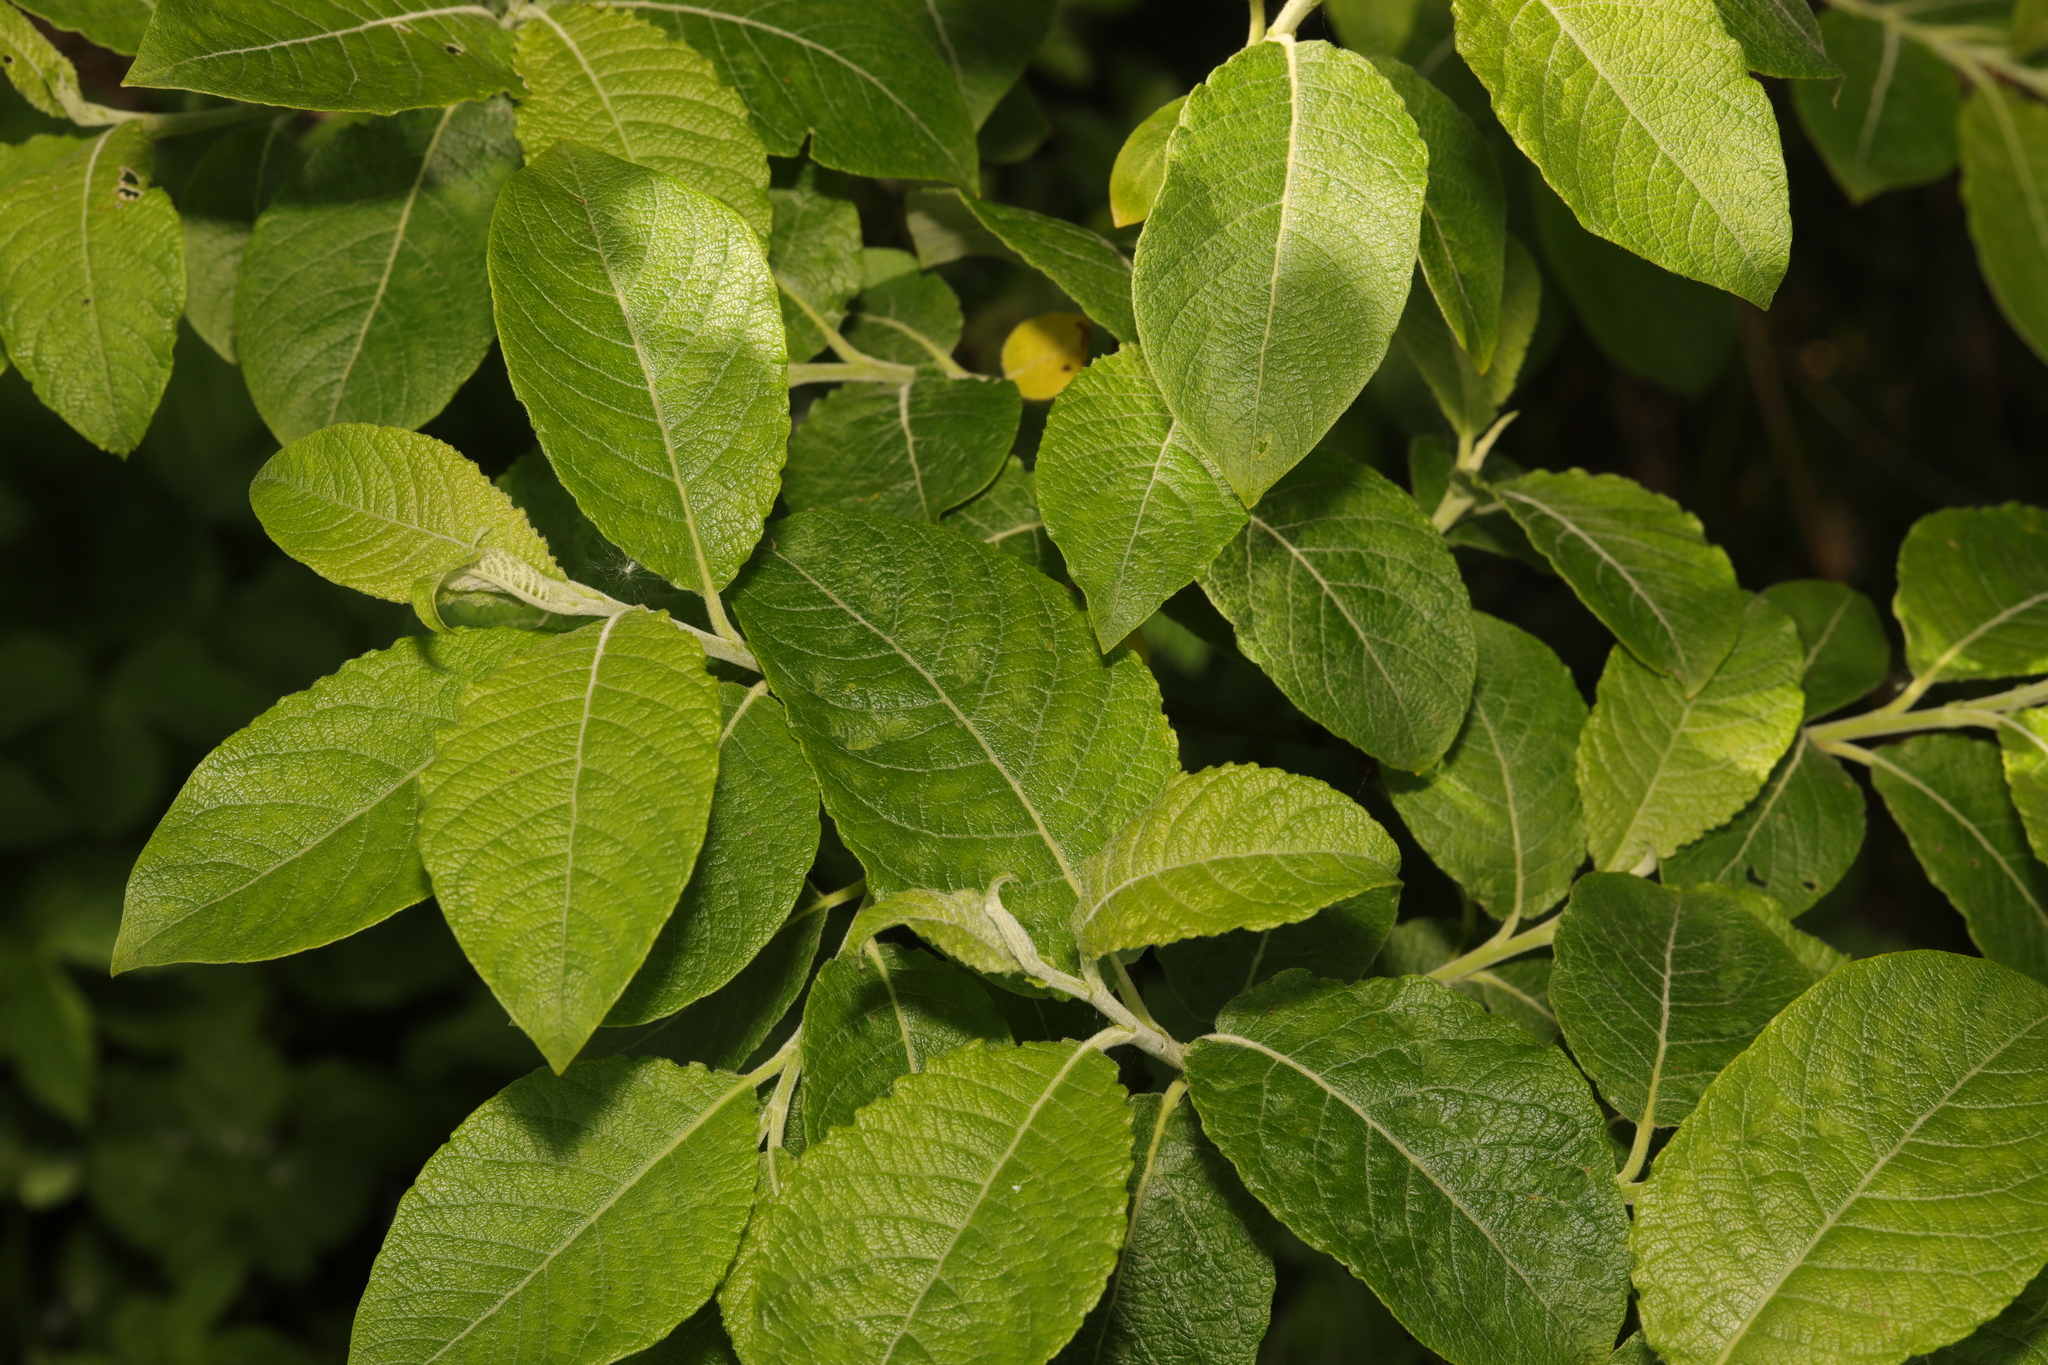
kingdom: Plantae
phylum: Tracheophyta
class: Magnoliopsida
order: Malpighiales
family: Salicaceae
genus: Salix
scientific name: Salix caprea
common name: Goat willow
